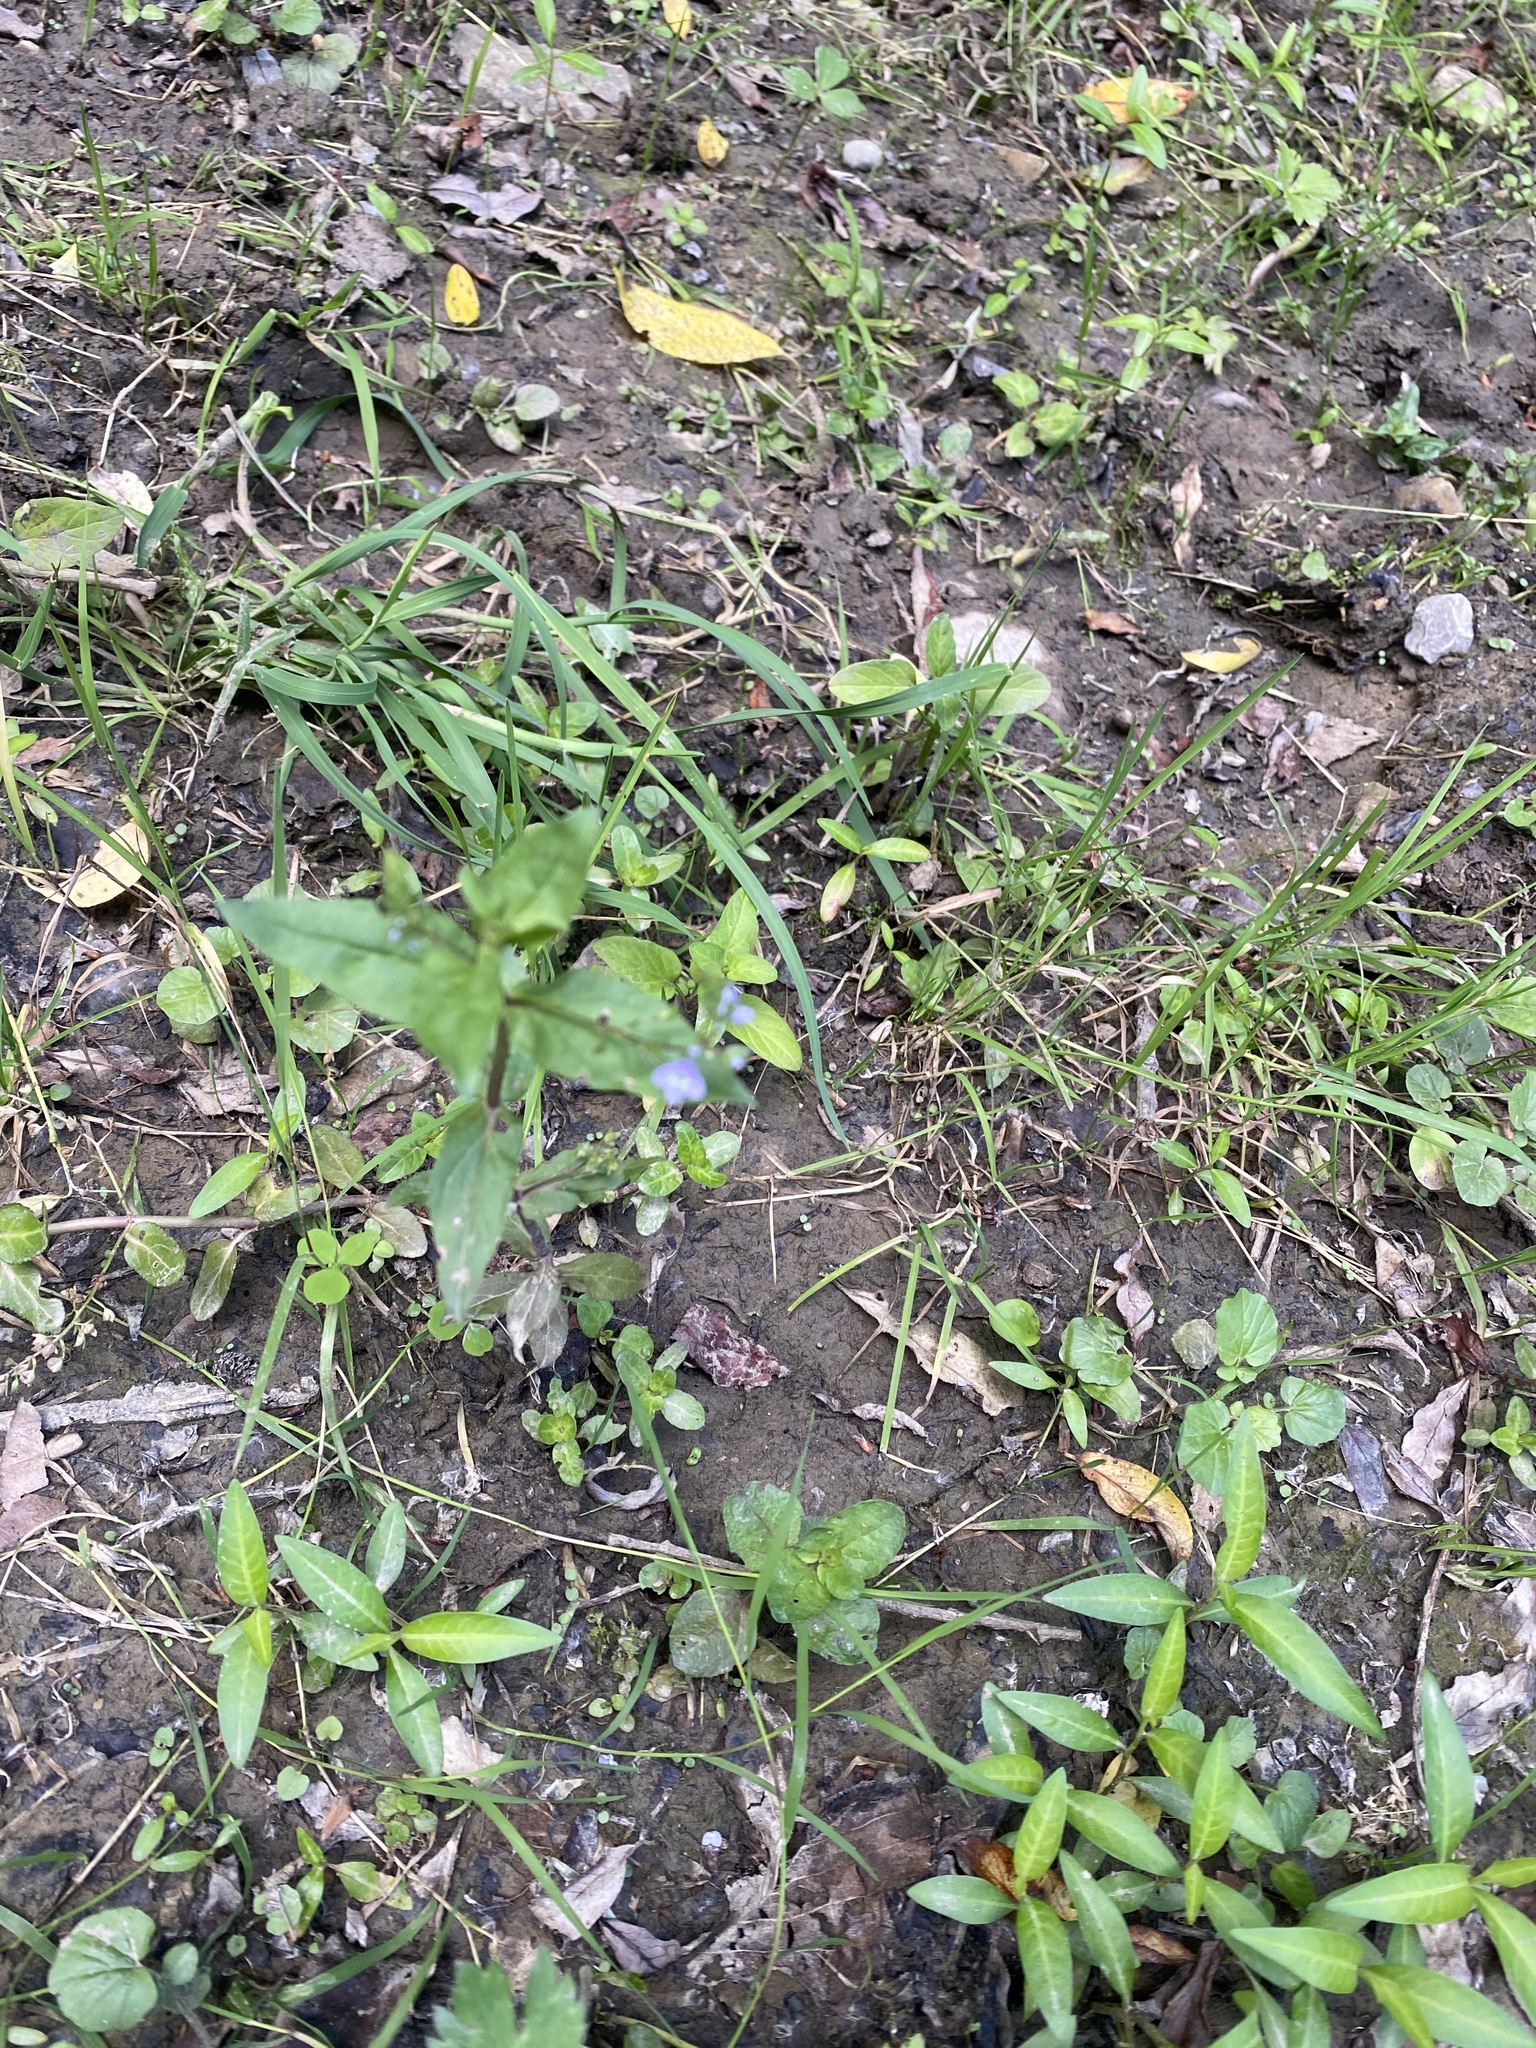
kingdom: Plantae
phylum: Tracheophyta
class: Magnoliopsida
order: Lamiales
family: Plantaginaceae
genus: Veronica
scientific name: Veronica anagallis-aquatica
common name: Water speedwell
